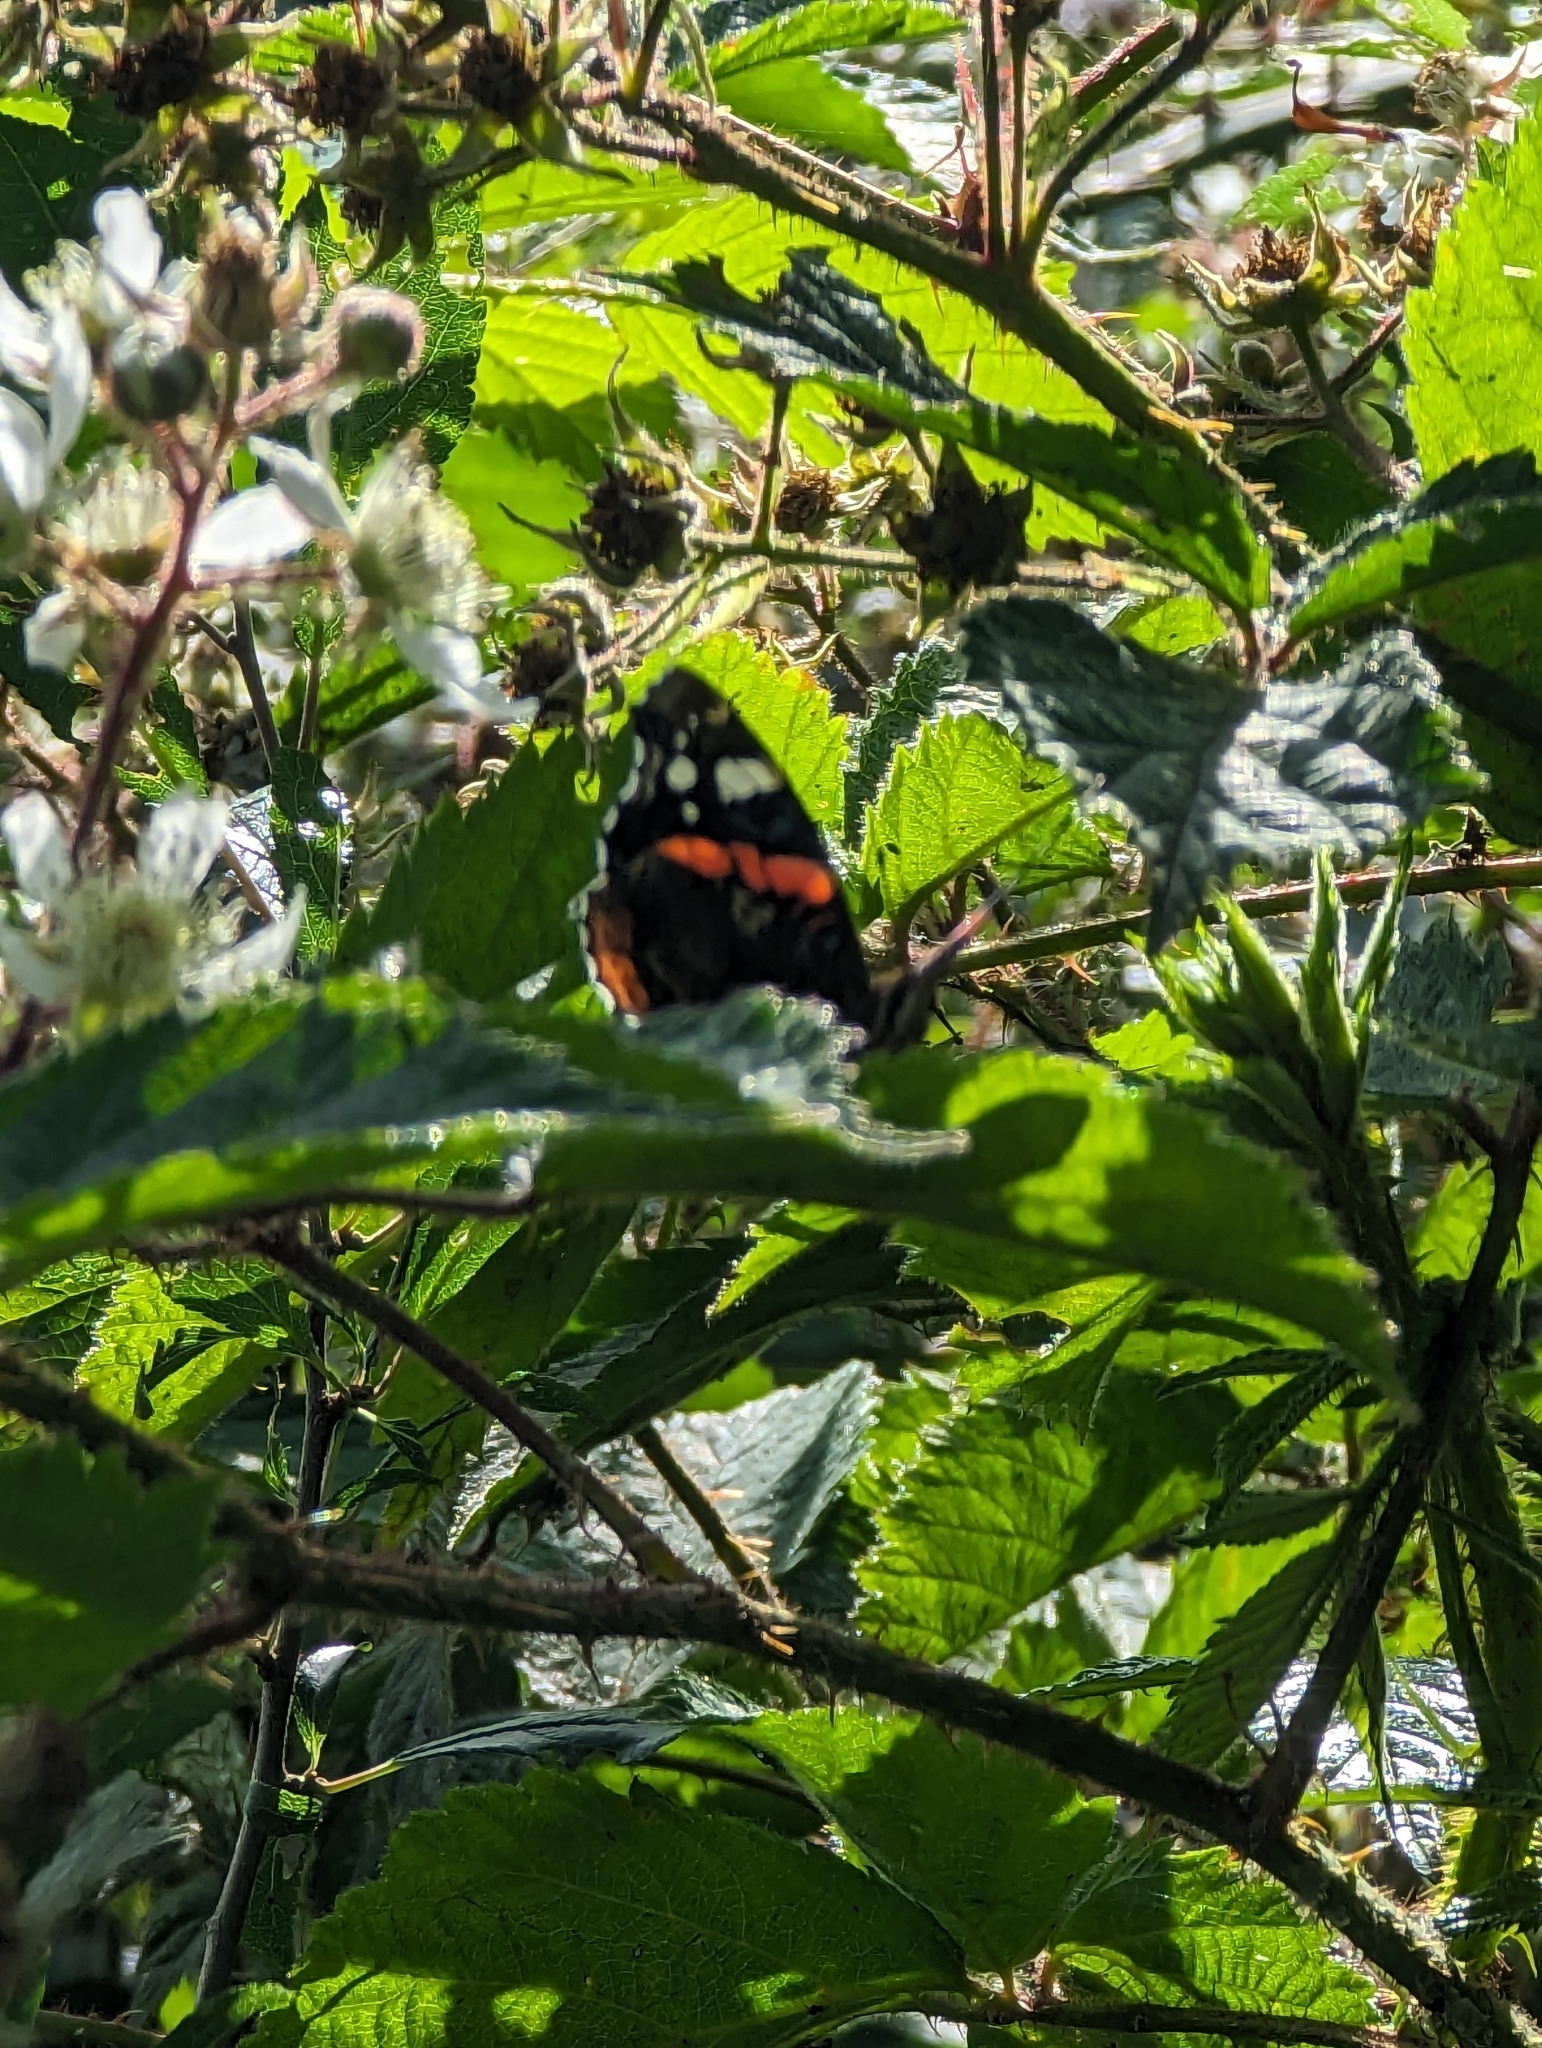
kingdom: Animalia
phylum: Arthropoda
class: Insecta
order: Lepidoptera
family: Nymphalidae
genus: Vanessa
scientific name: Vanessa atalanta
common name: Red admiral
